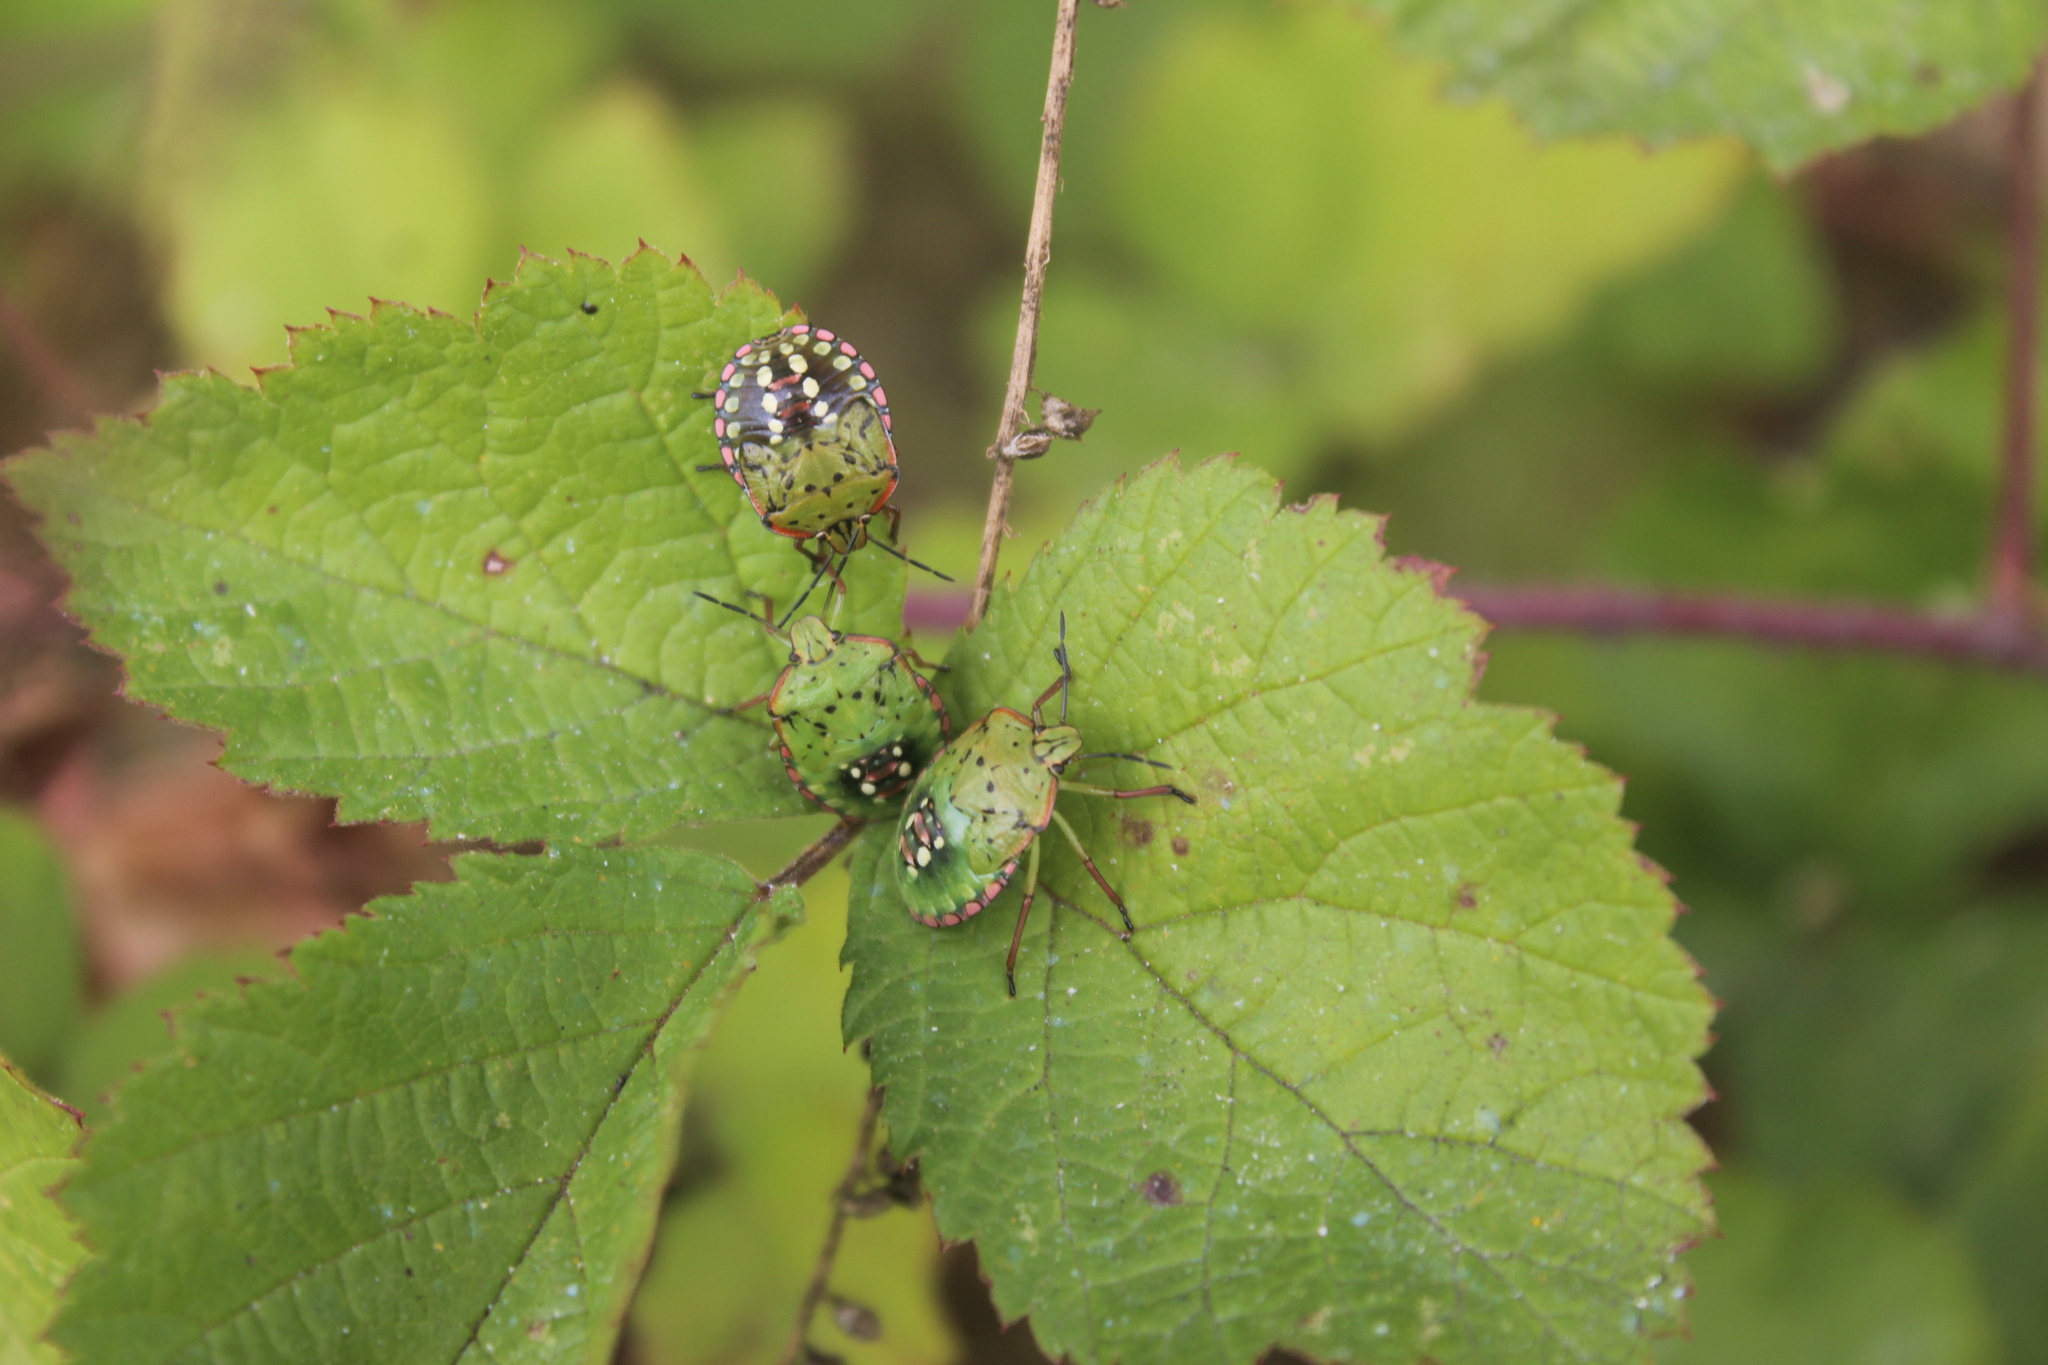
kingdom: Animalia
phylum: Arthropoda
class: Insecta
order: Hemiptera
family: Pentatomidae
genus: Nezara
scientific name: Nezara viridula
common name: Southern green stink bug
